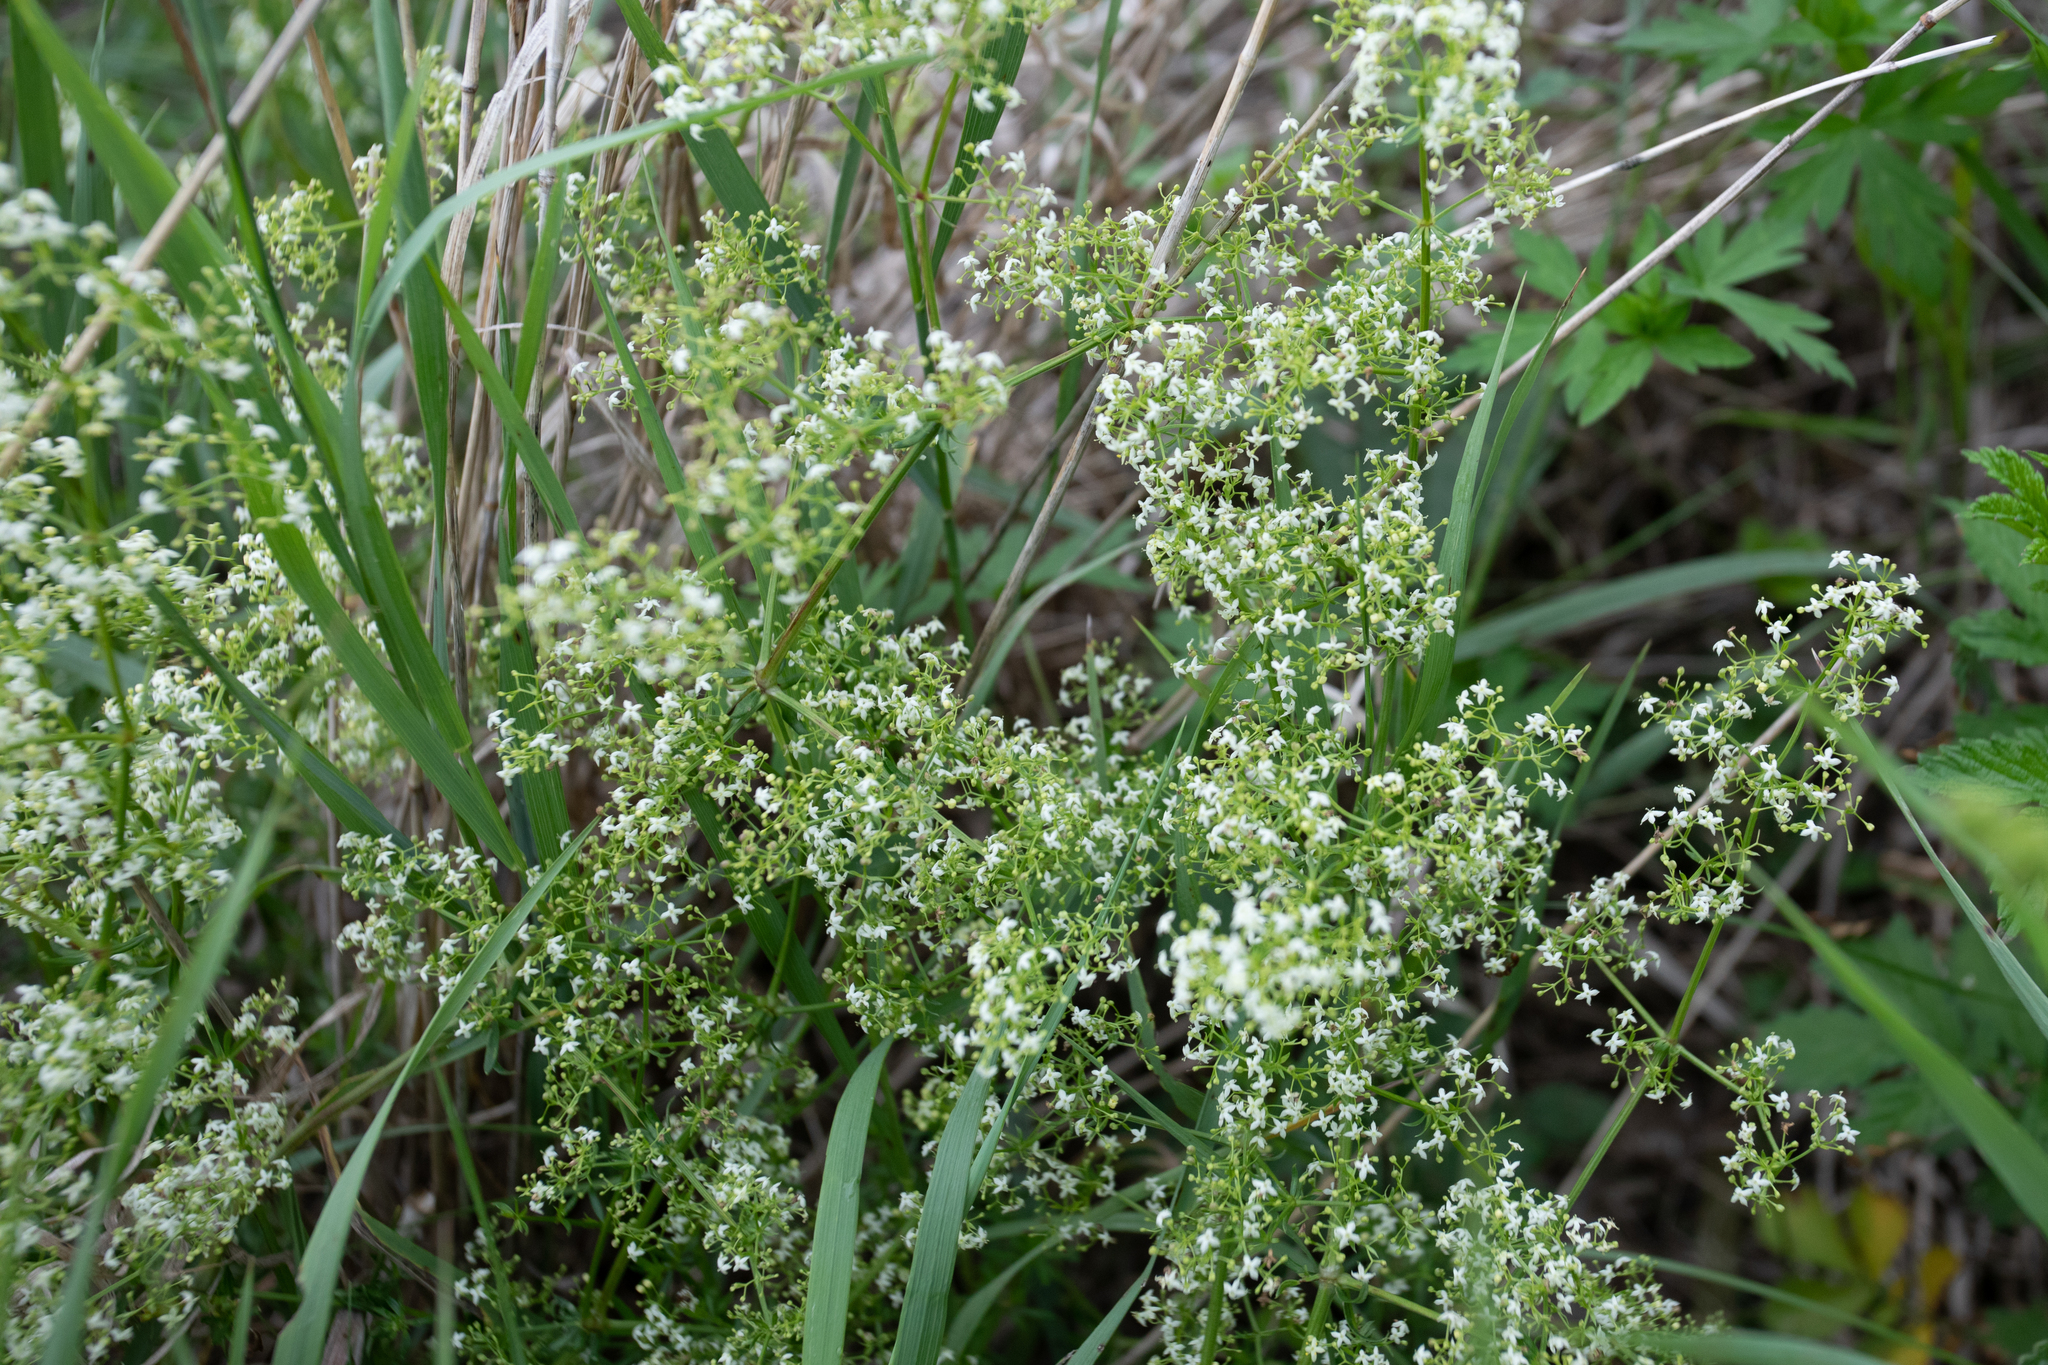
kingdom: Plantae
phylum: Tracheophyta
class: Magnoliopsida
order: Gentianales
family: Rubiaceae
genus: Galium
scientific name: Galium mollugo
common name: Hedge bedstraw
